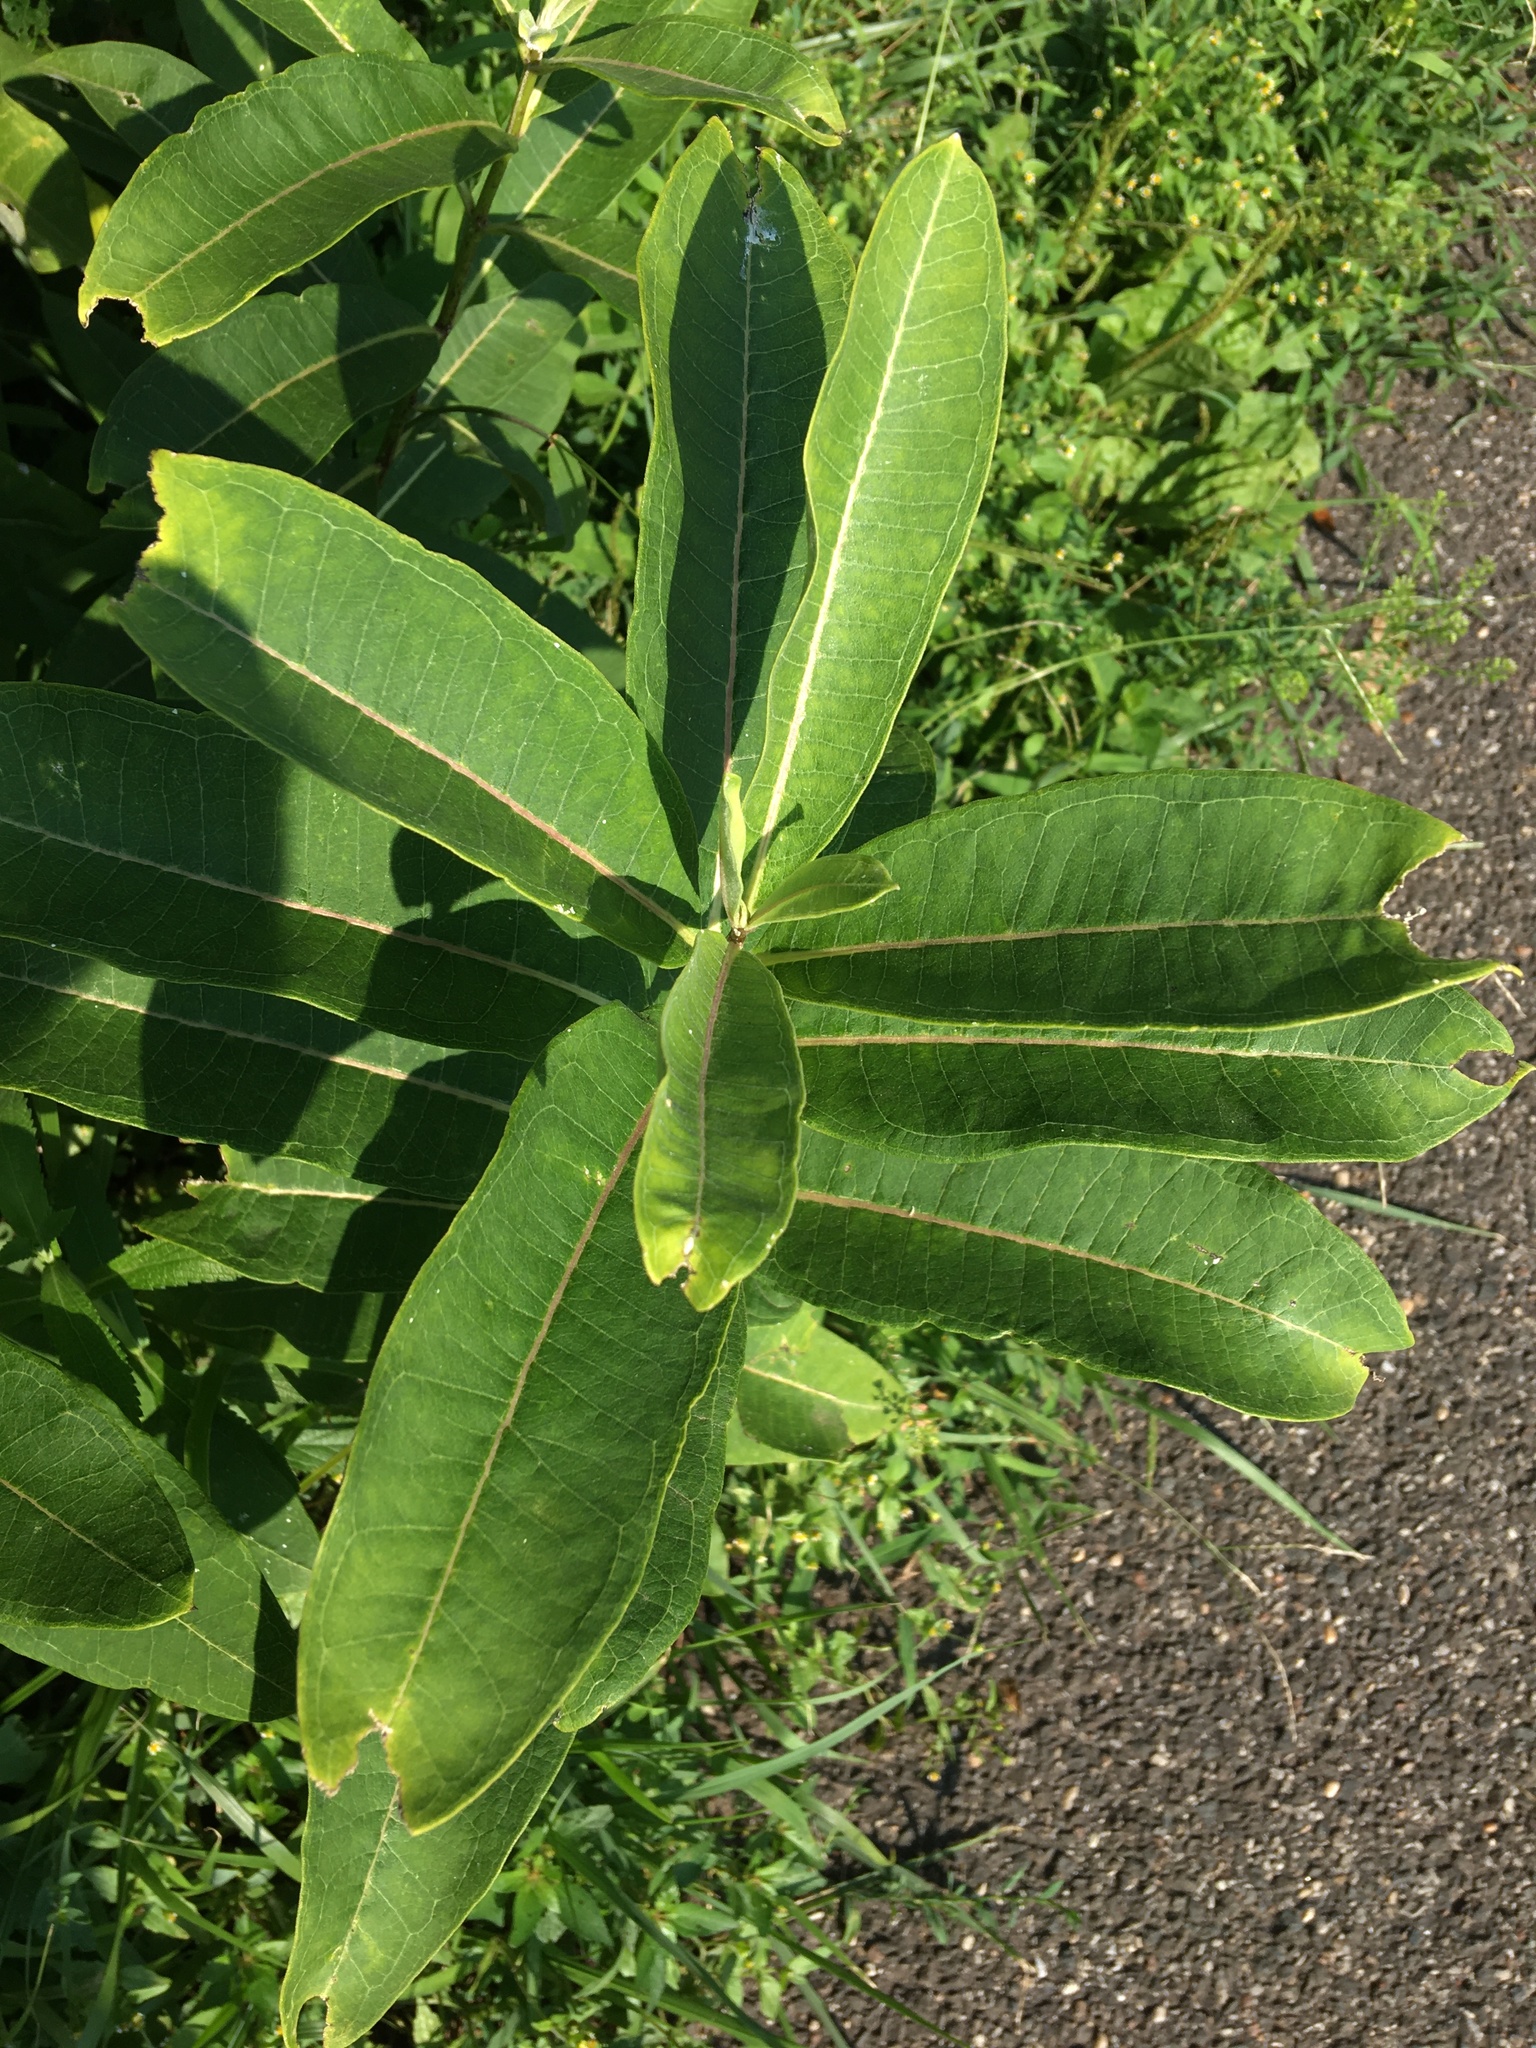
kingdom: Plantae
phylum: Tracheophyta
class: Magnoliopsida
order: Gentianales
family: Apocynaceae
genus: Asclepias
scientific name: Asclepias syriaca
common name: Common milkweed
